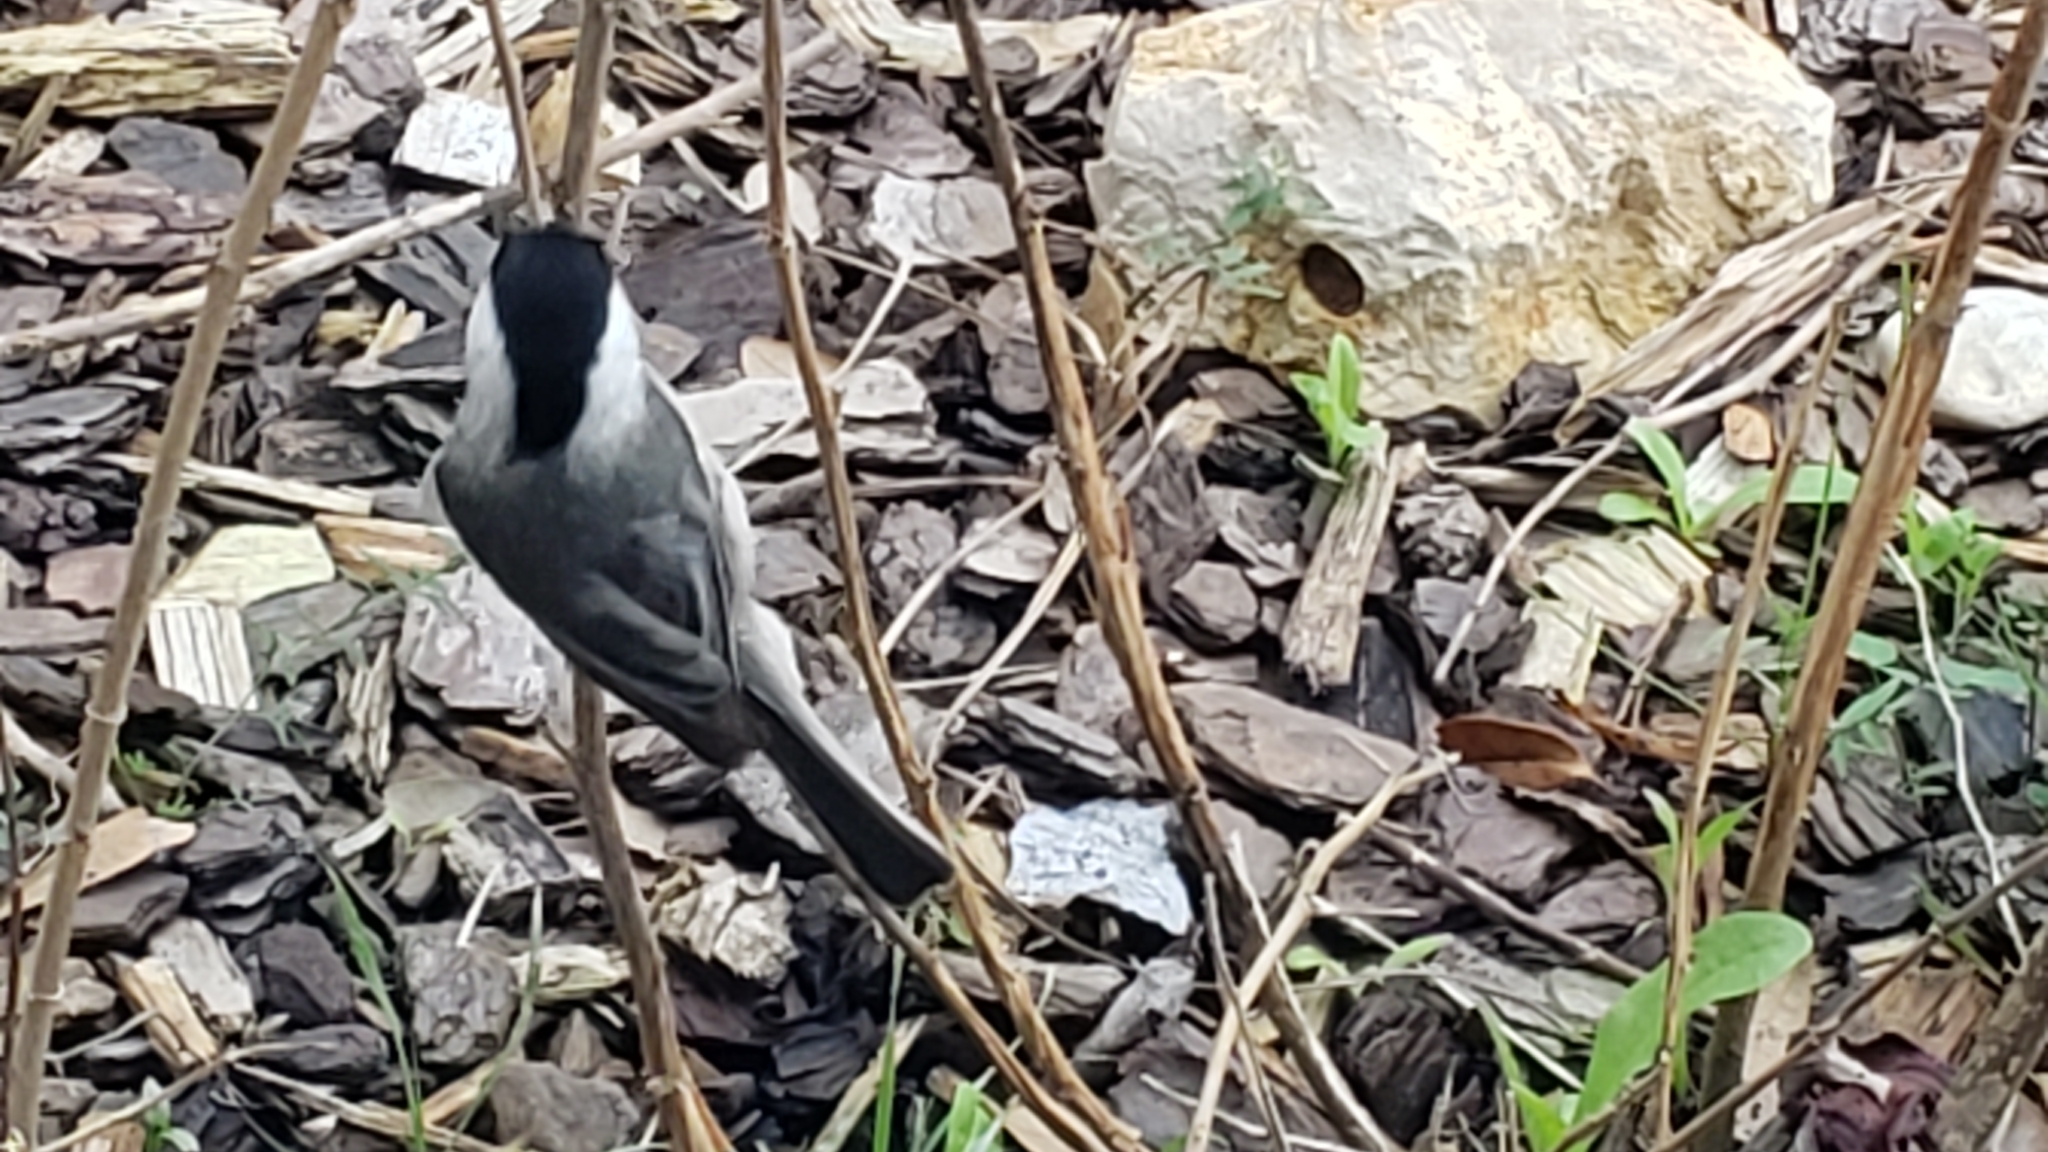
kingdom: Animalia
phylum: Chordata
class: Aves
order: Passeriformes
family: Paridae
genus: Poecile
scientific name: Poecile carolinensis
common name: Carolina chickadee
